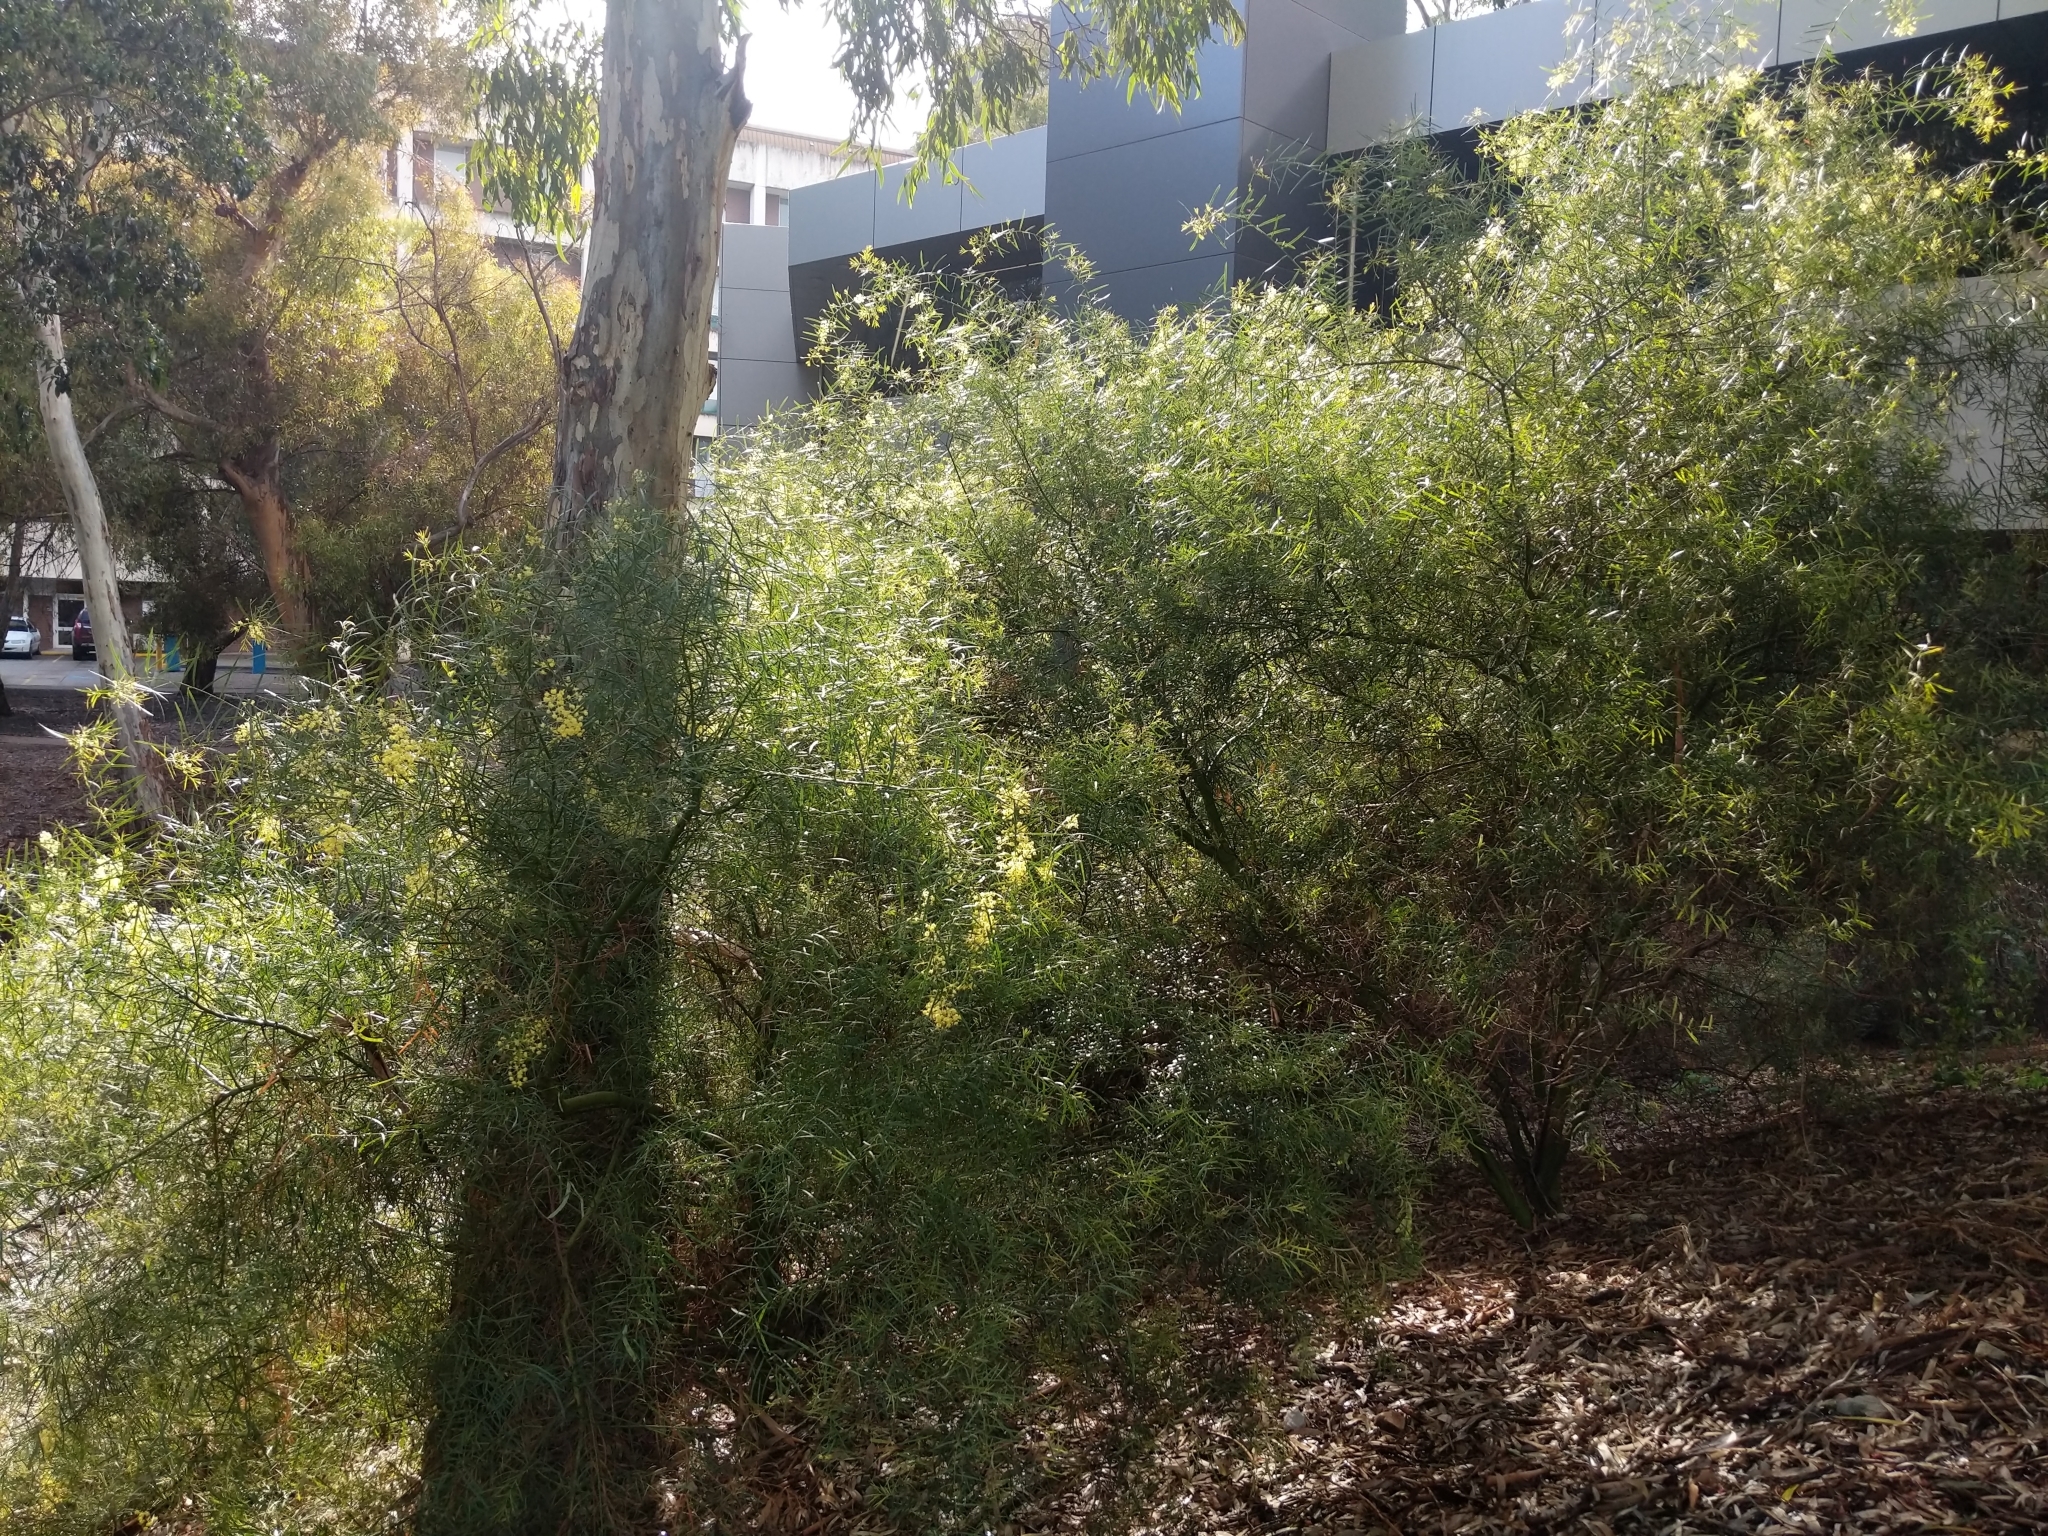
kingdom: Plantae
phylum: Tracheophyta
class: Magnoliopsida
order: Fabales
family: Fabaceae
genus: Acacia
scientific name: Acacia iteaphylla
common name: Flinders ranges wattle
